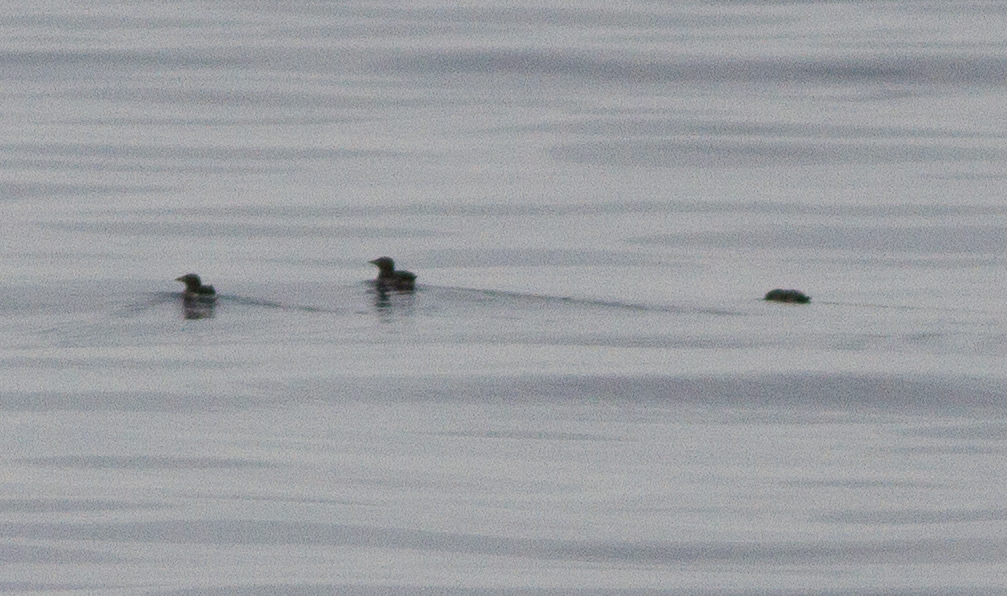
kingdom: Animalia
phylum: Chordata
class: Aves
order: Charadriiformes
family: Alcidae
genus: Cerorhinca
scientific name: Cerorhinca monocerata
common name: Rhinoceros auklet
